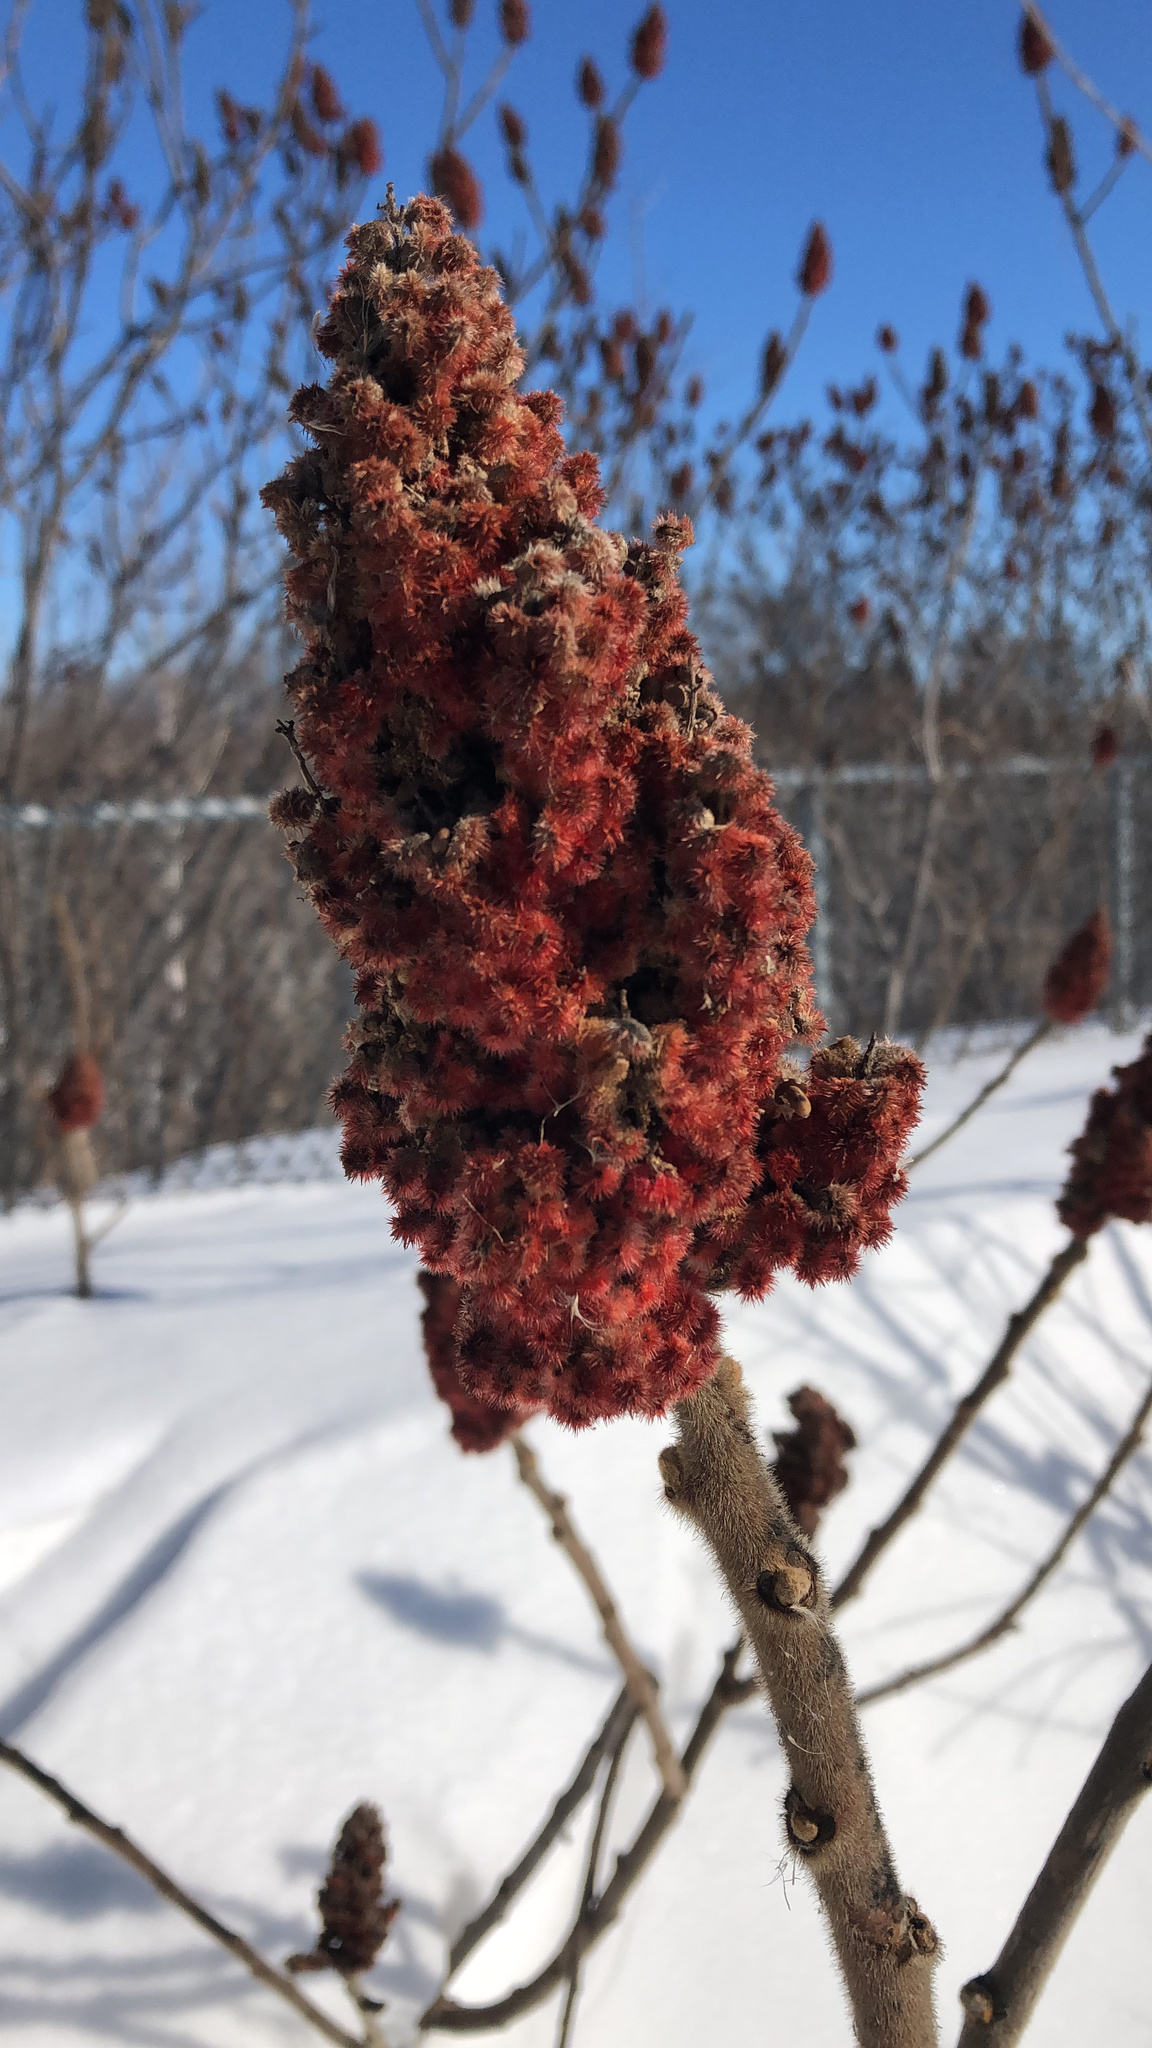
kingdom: Plantae
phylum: Tracheophyta
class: Magnoliopsida
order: Sapindales
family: Anacardiaceae
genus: Rhus
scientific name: Rhus typhina
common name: Staghorn sumac
